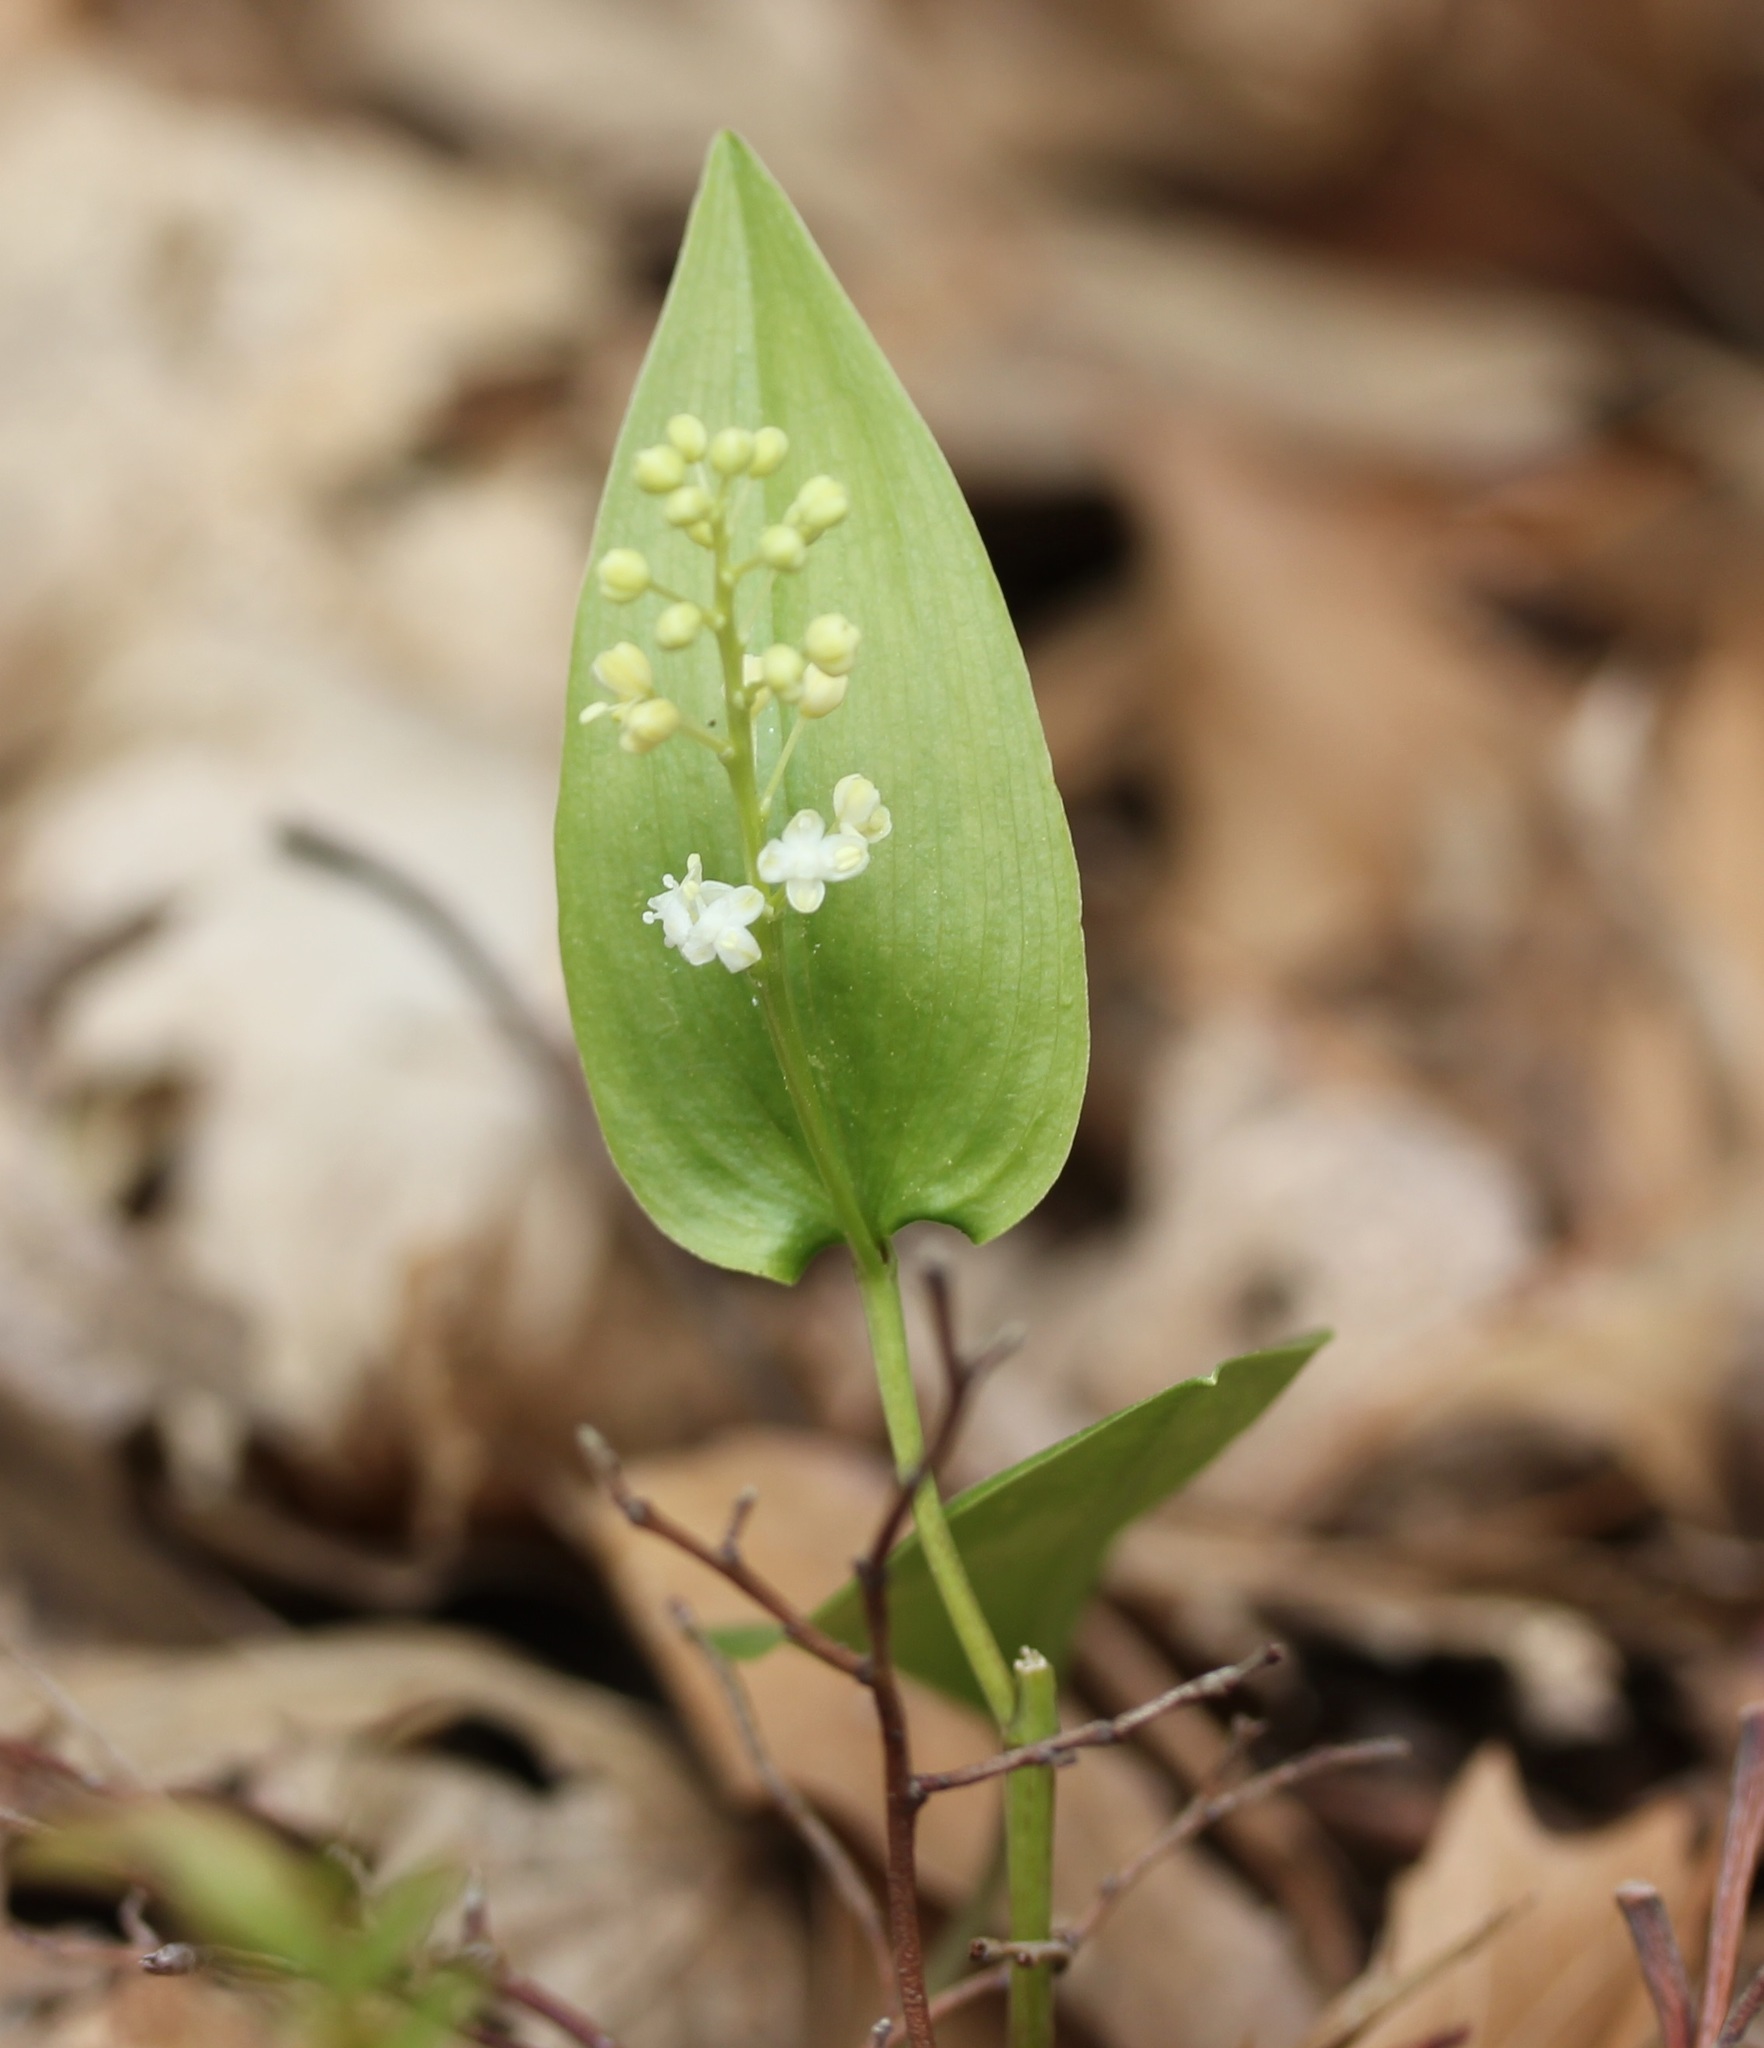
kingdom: Plantae
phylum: Tracheophyta
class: Liliopsida
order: Asparagales
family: Asparagaceae
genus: Maianthemum
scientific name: Maianthemum canadense
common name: False lily-of-the-valley
